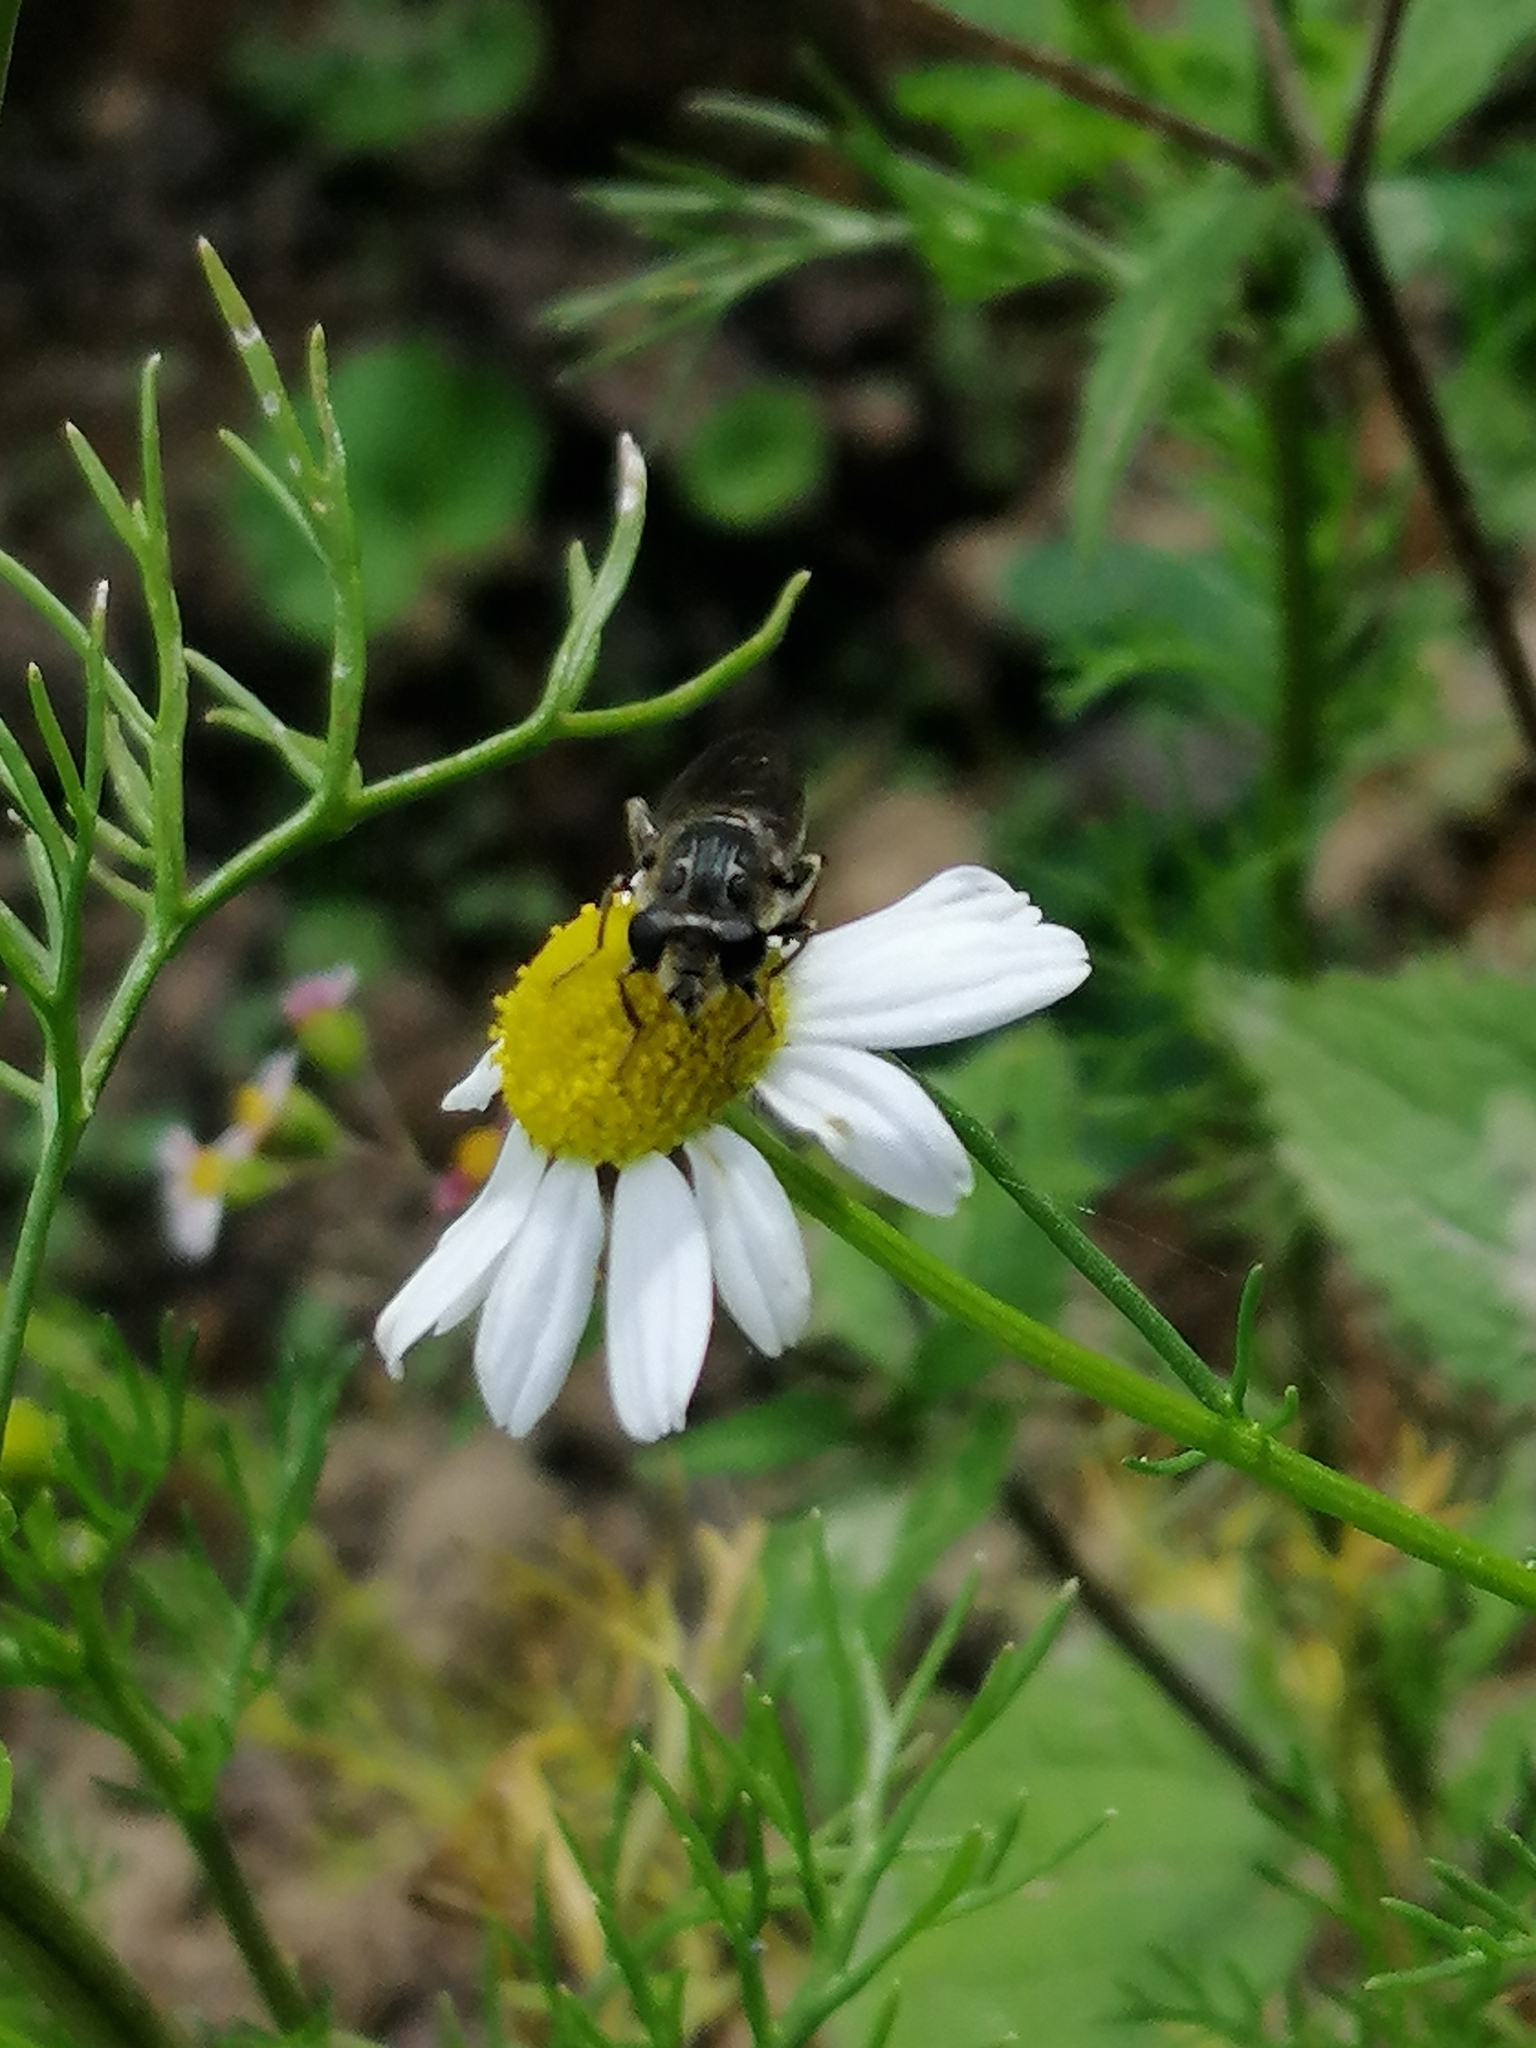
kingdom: Animalia
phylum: Arthropoda
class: Insecta
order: Diptera
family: Syrphidae
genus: Asemosyrphus
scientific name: Asemosyrphus
